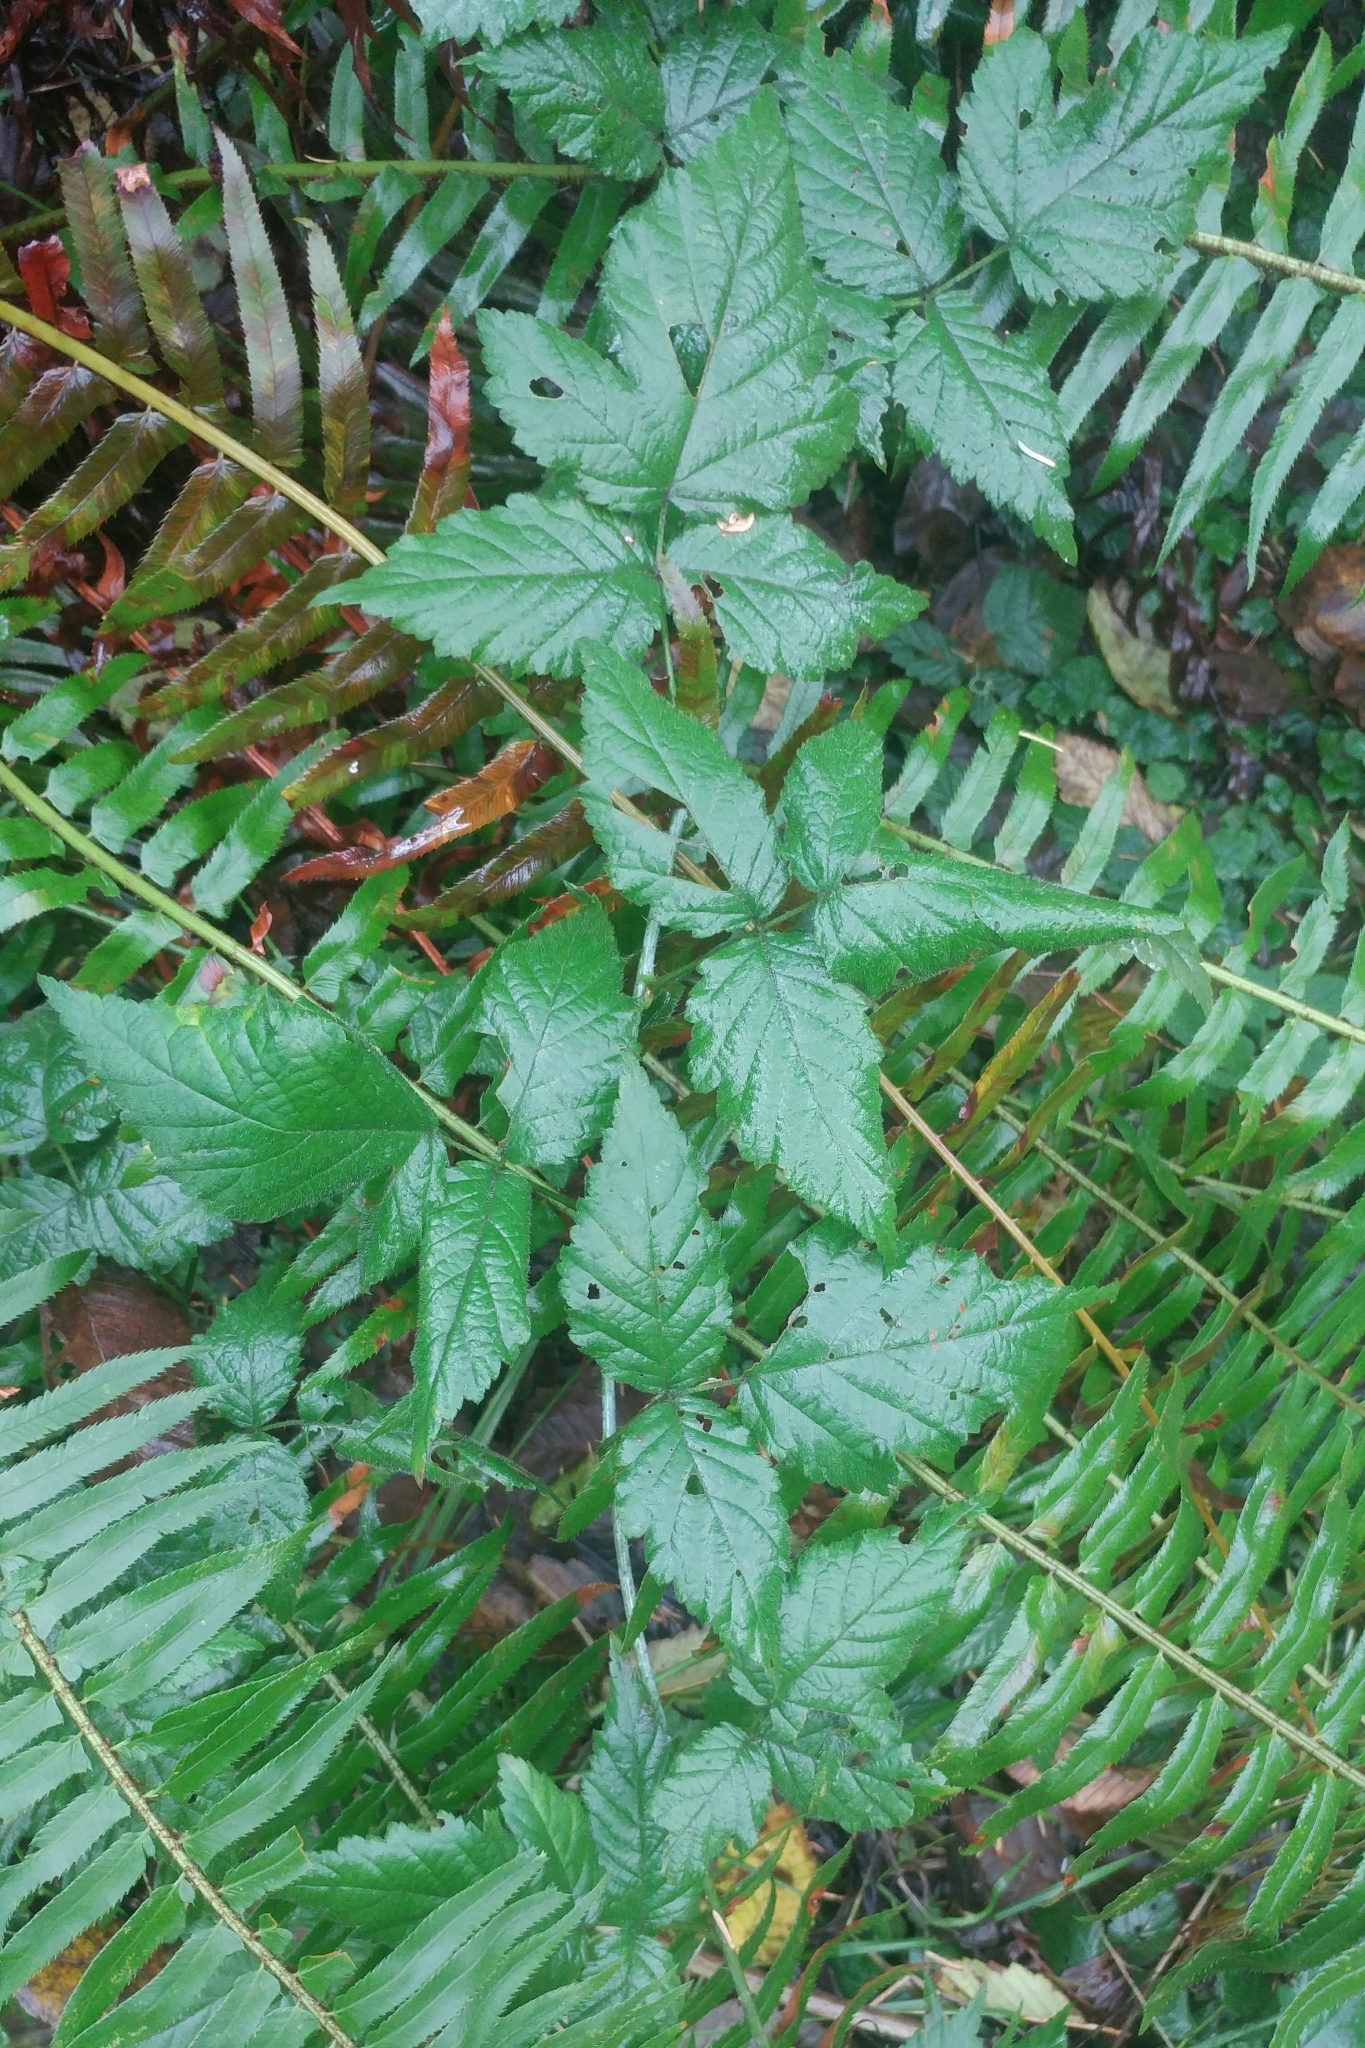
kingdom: Plantae
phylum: Tracheophyta
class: Magnoliopsida
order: Rosales
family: Rosaceae
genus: Rubus
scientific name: Rubus ursinus
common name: Pacific blackberry
